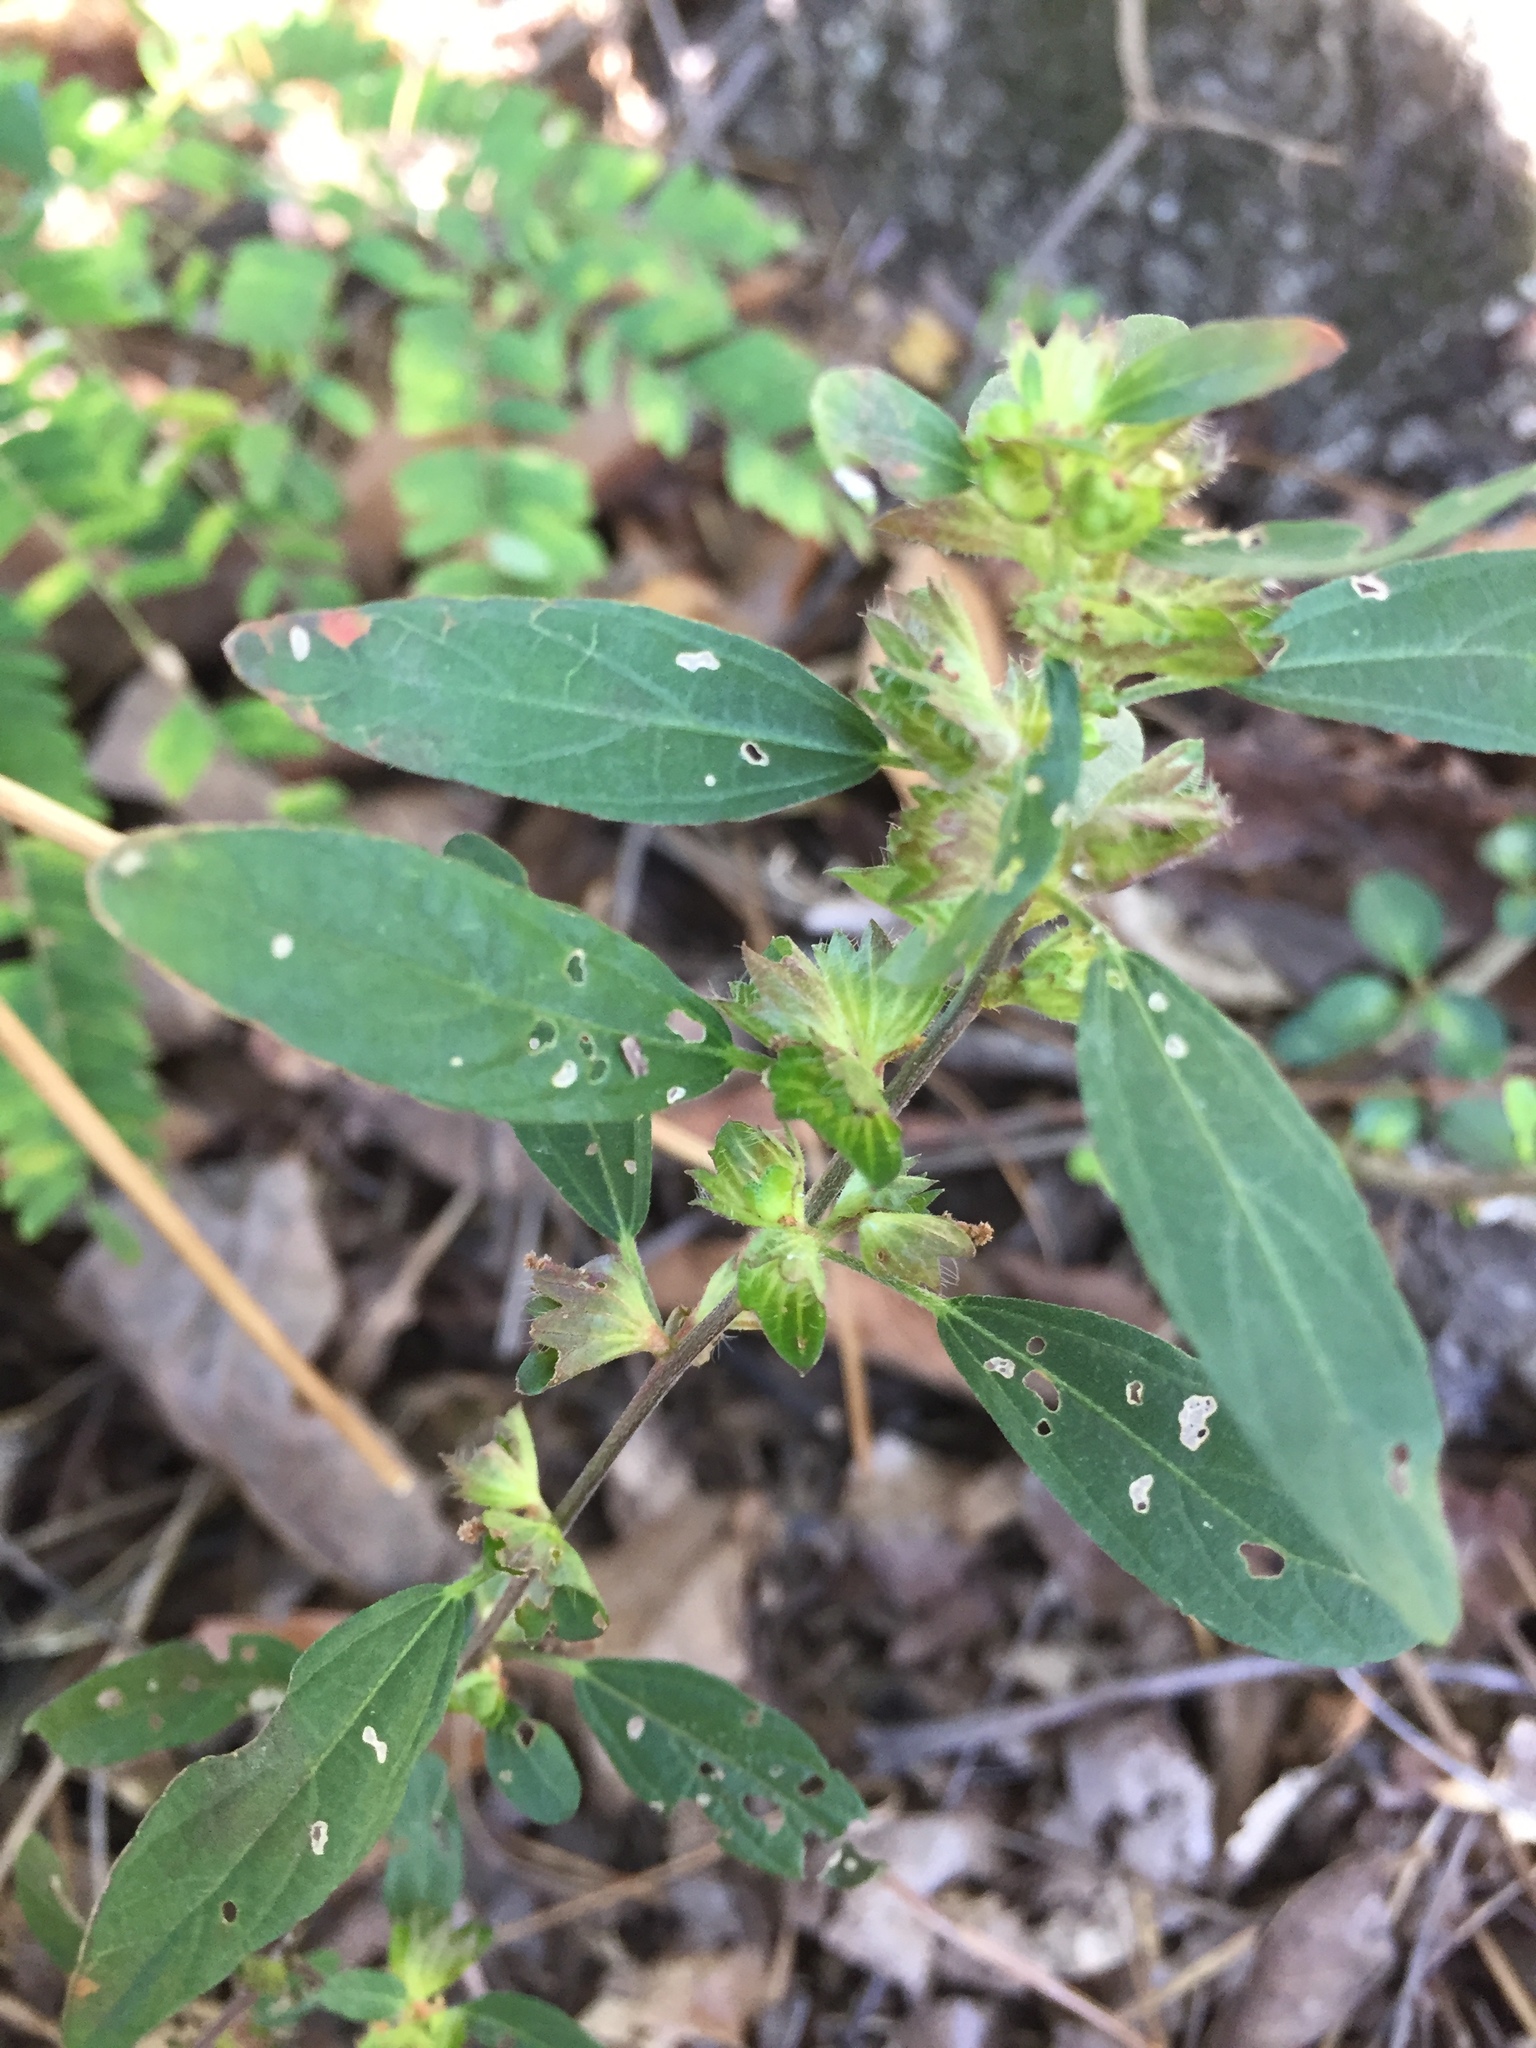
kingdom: Plantae
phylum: Tracheophyta
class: Magnoliopsida
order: Malpighiales
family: Euphorbiaceae
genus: Acalypha
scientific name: Acalypha virginica
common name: Virginia copperleaf
